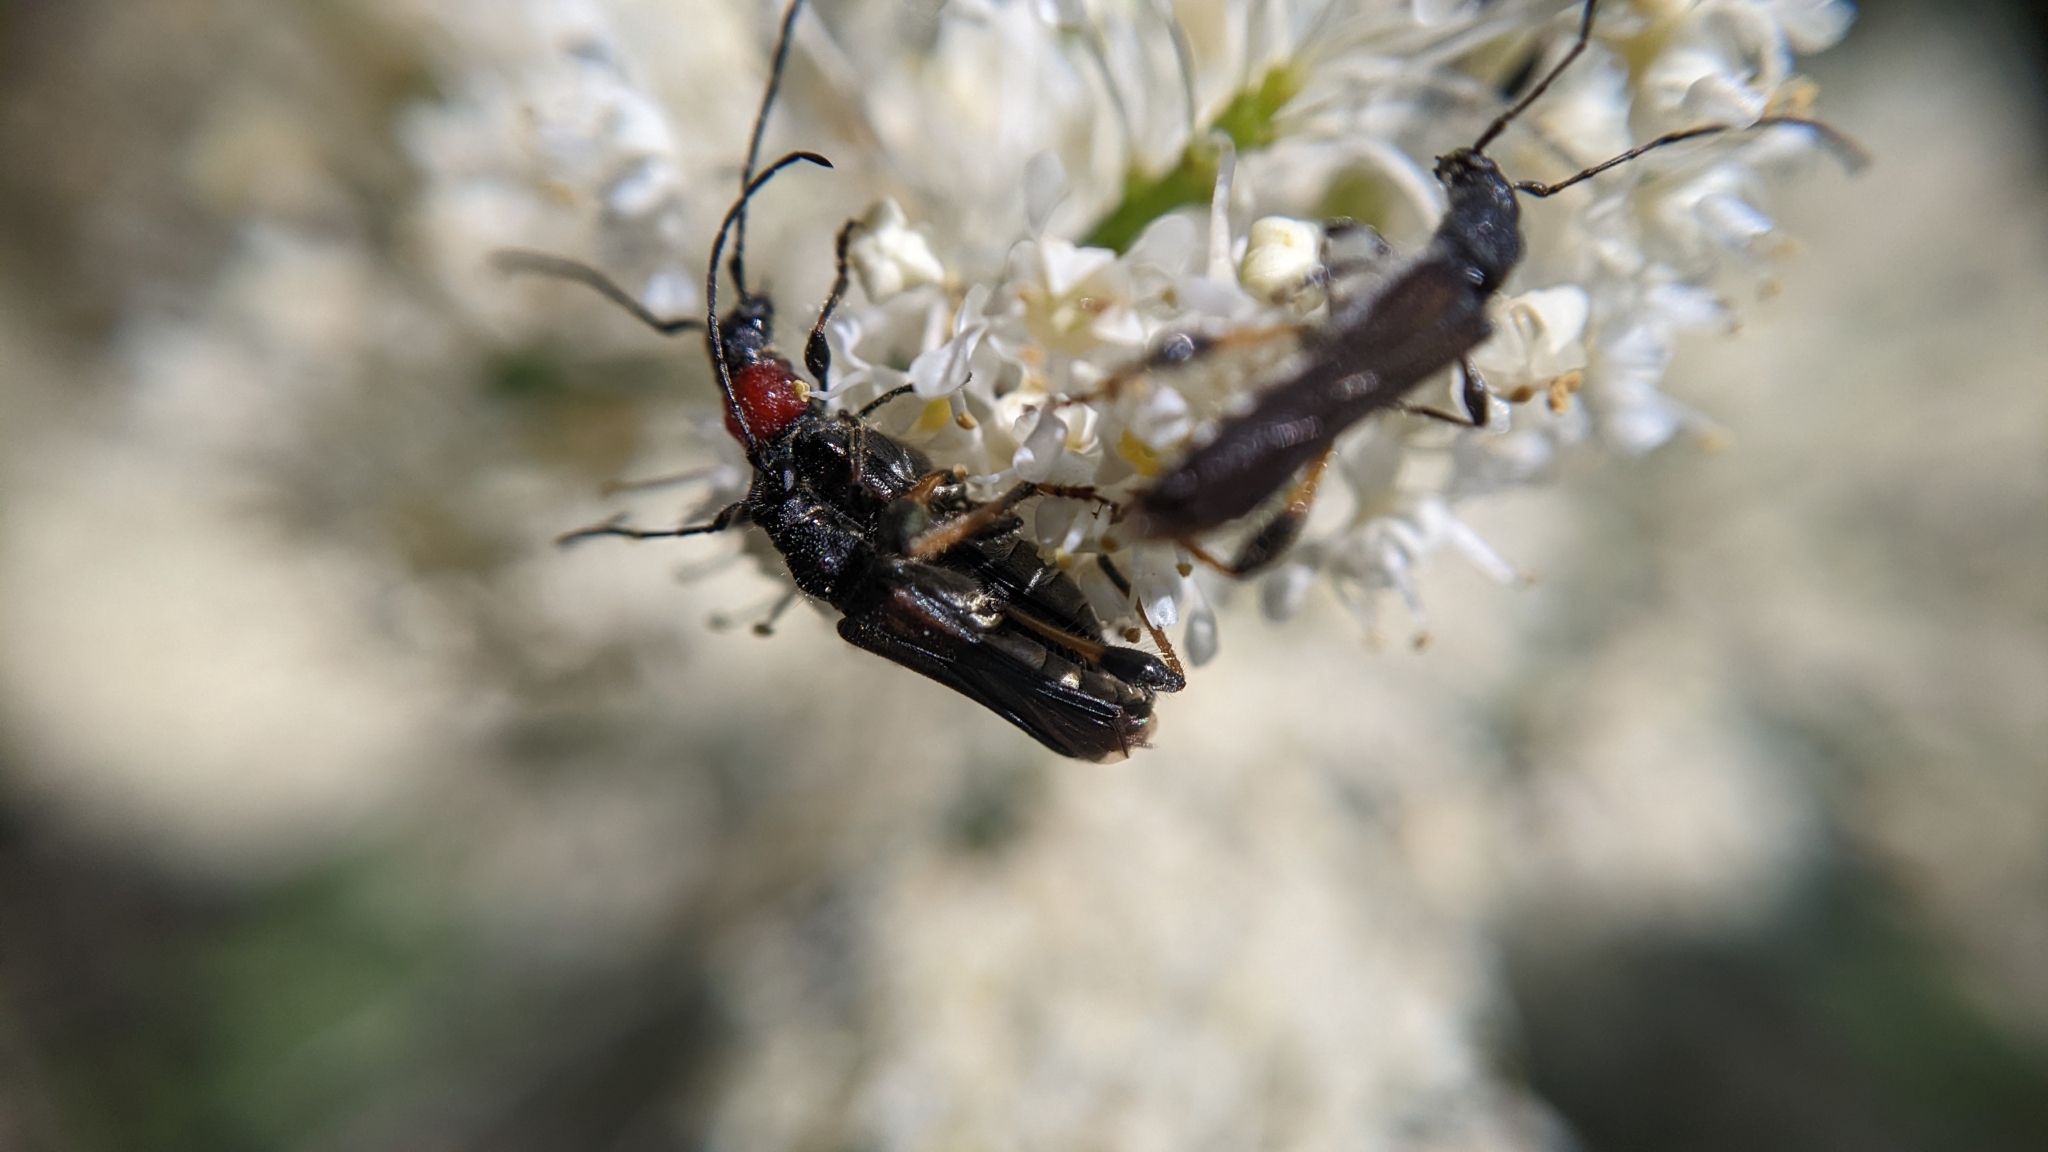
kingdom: Animalia
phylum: Arthropoda
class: Insecta
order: Coleoptera
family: Cerambycidae
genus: Callimoxys
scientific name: Callimoxys fuscipennis
